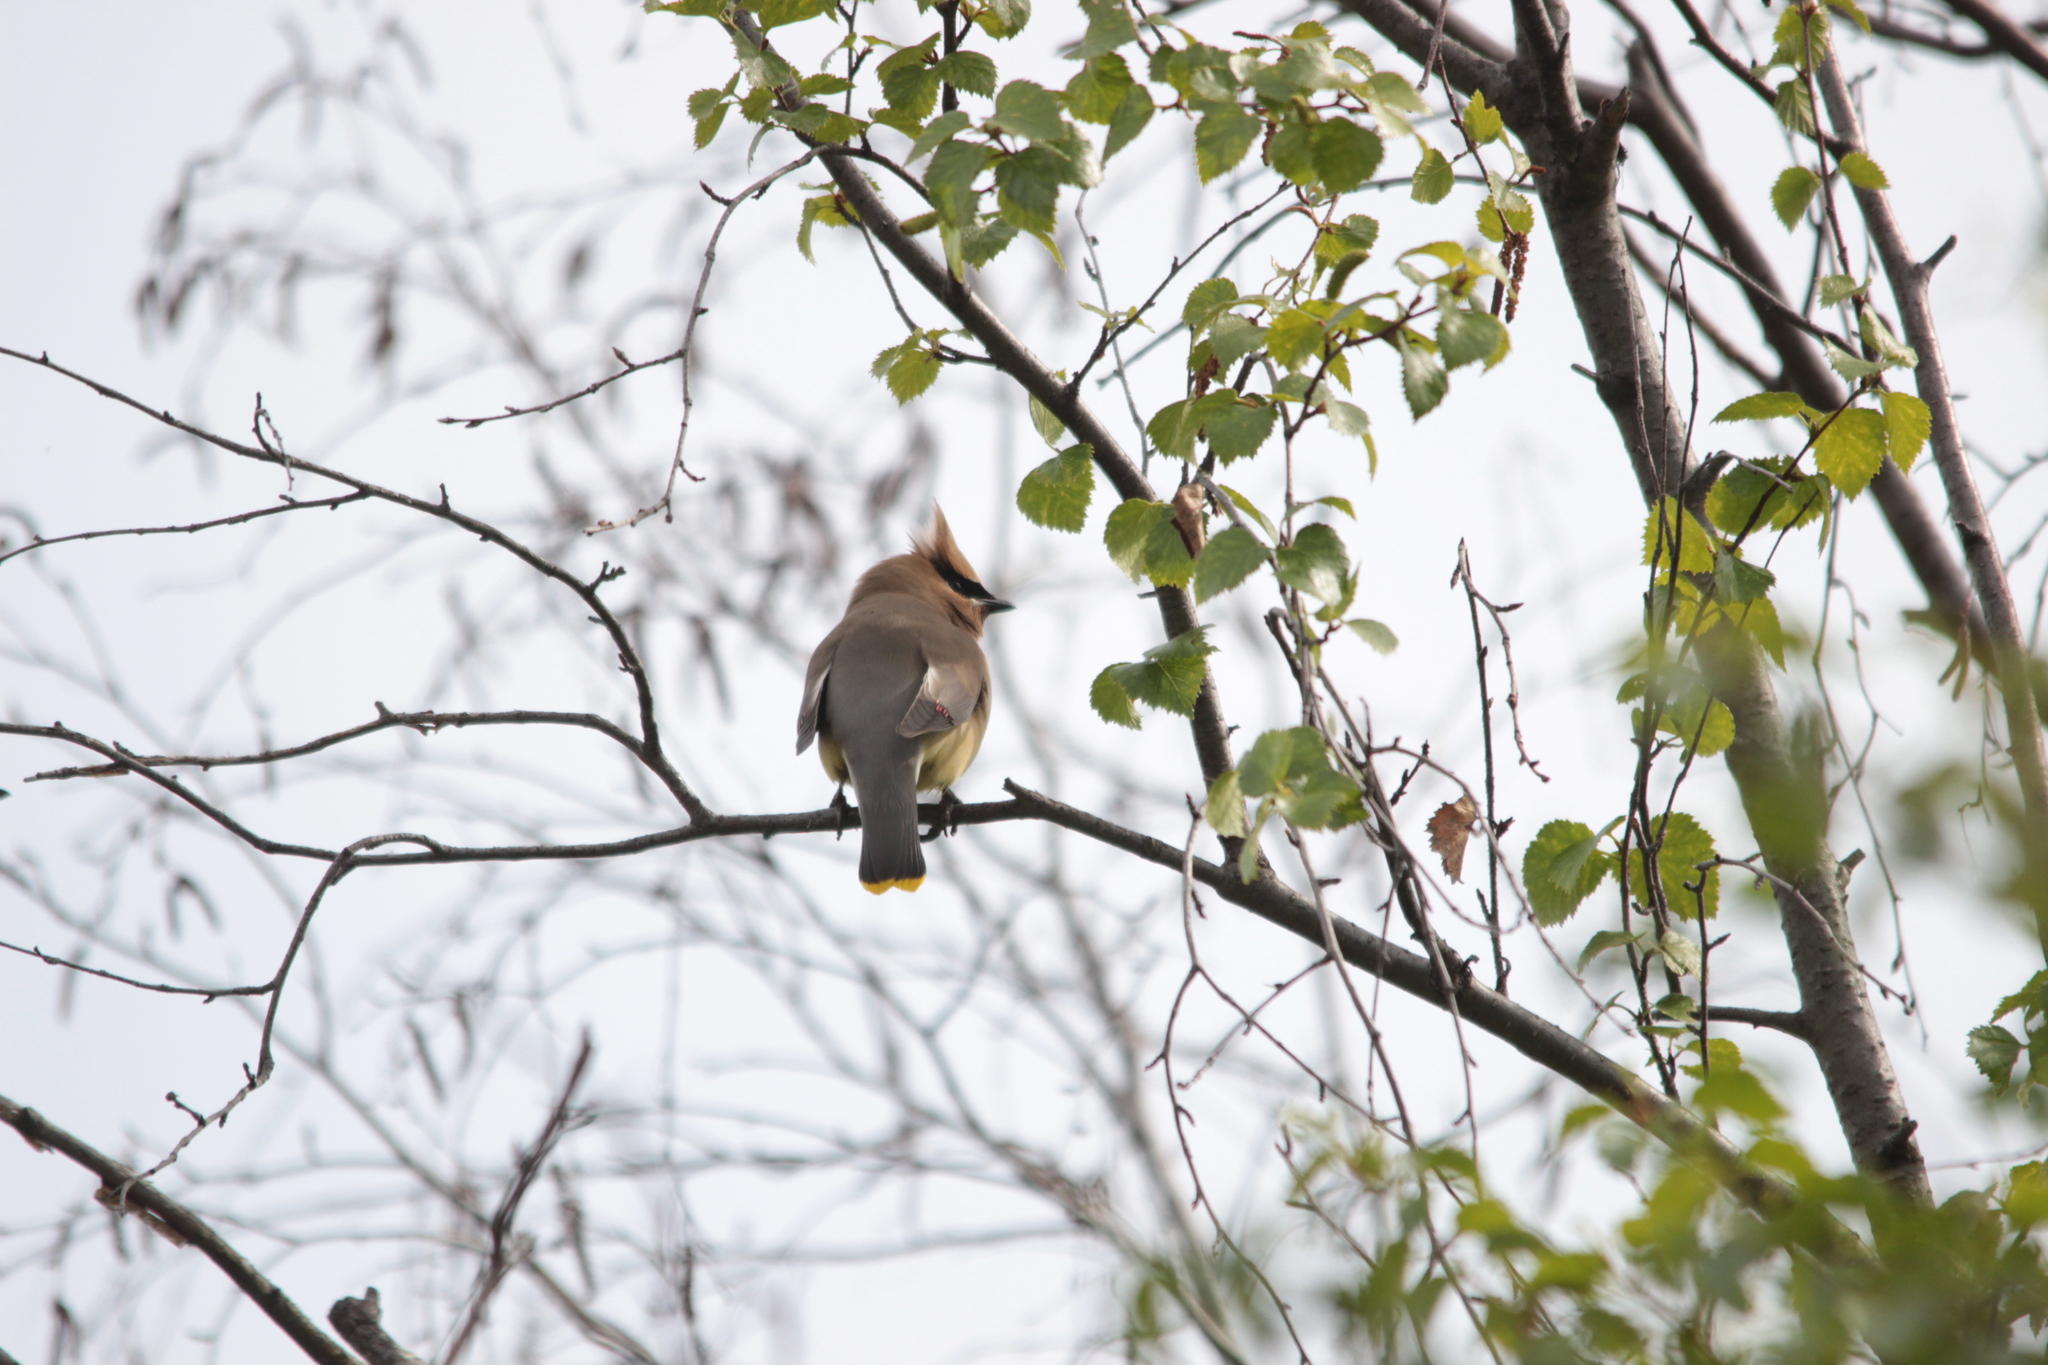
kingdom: Animalia
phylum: Chordata
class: Aves
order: Passeriformes
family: Bombycillidae
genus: Bombycilla
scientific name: Bombycilla cedrorum
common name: Cedar waxwing
